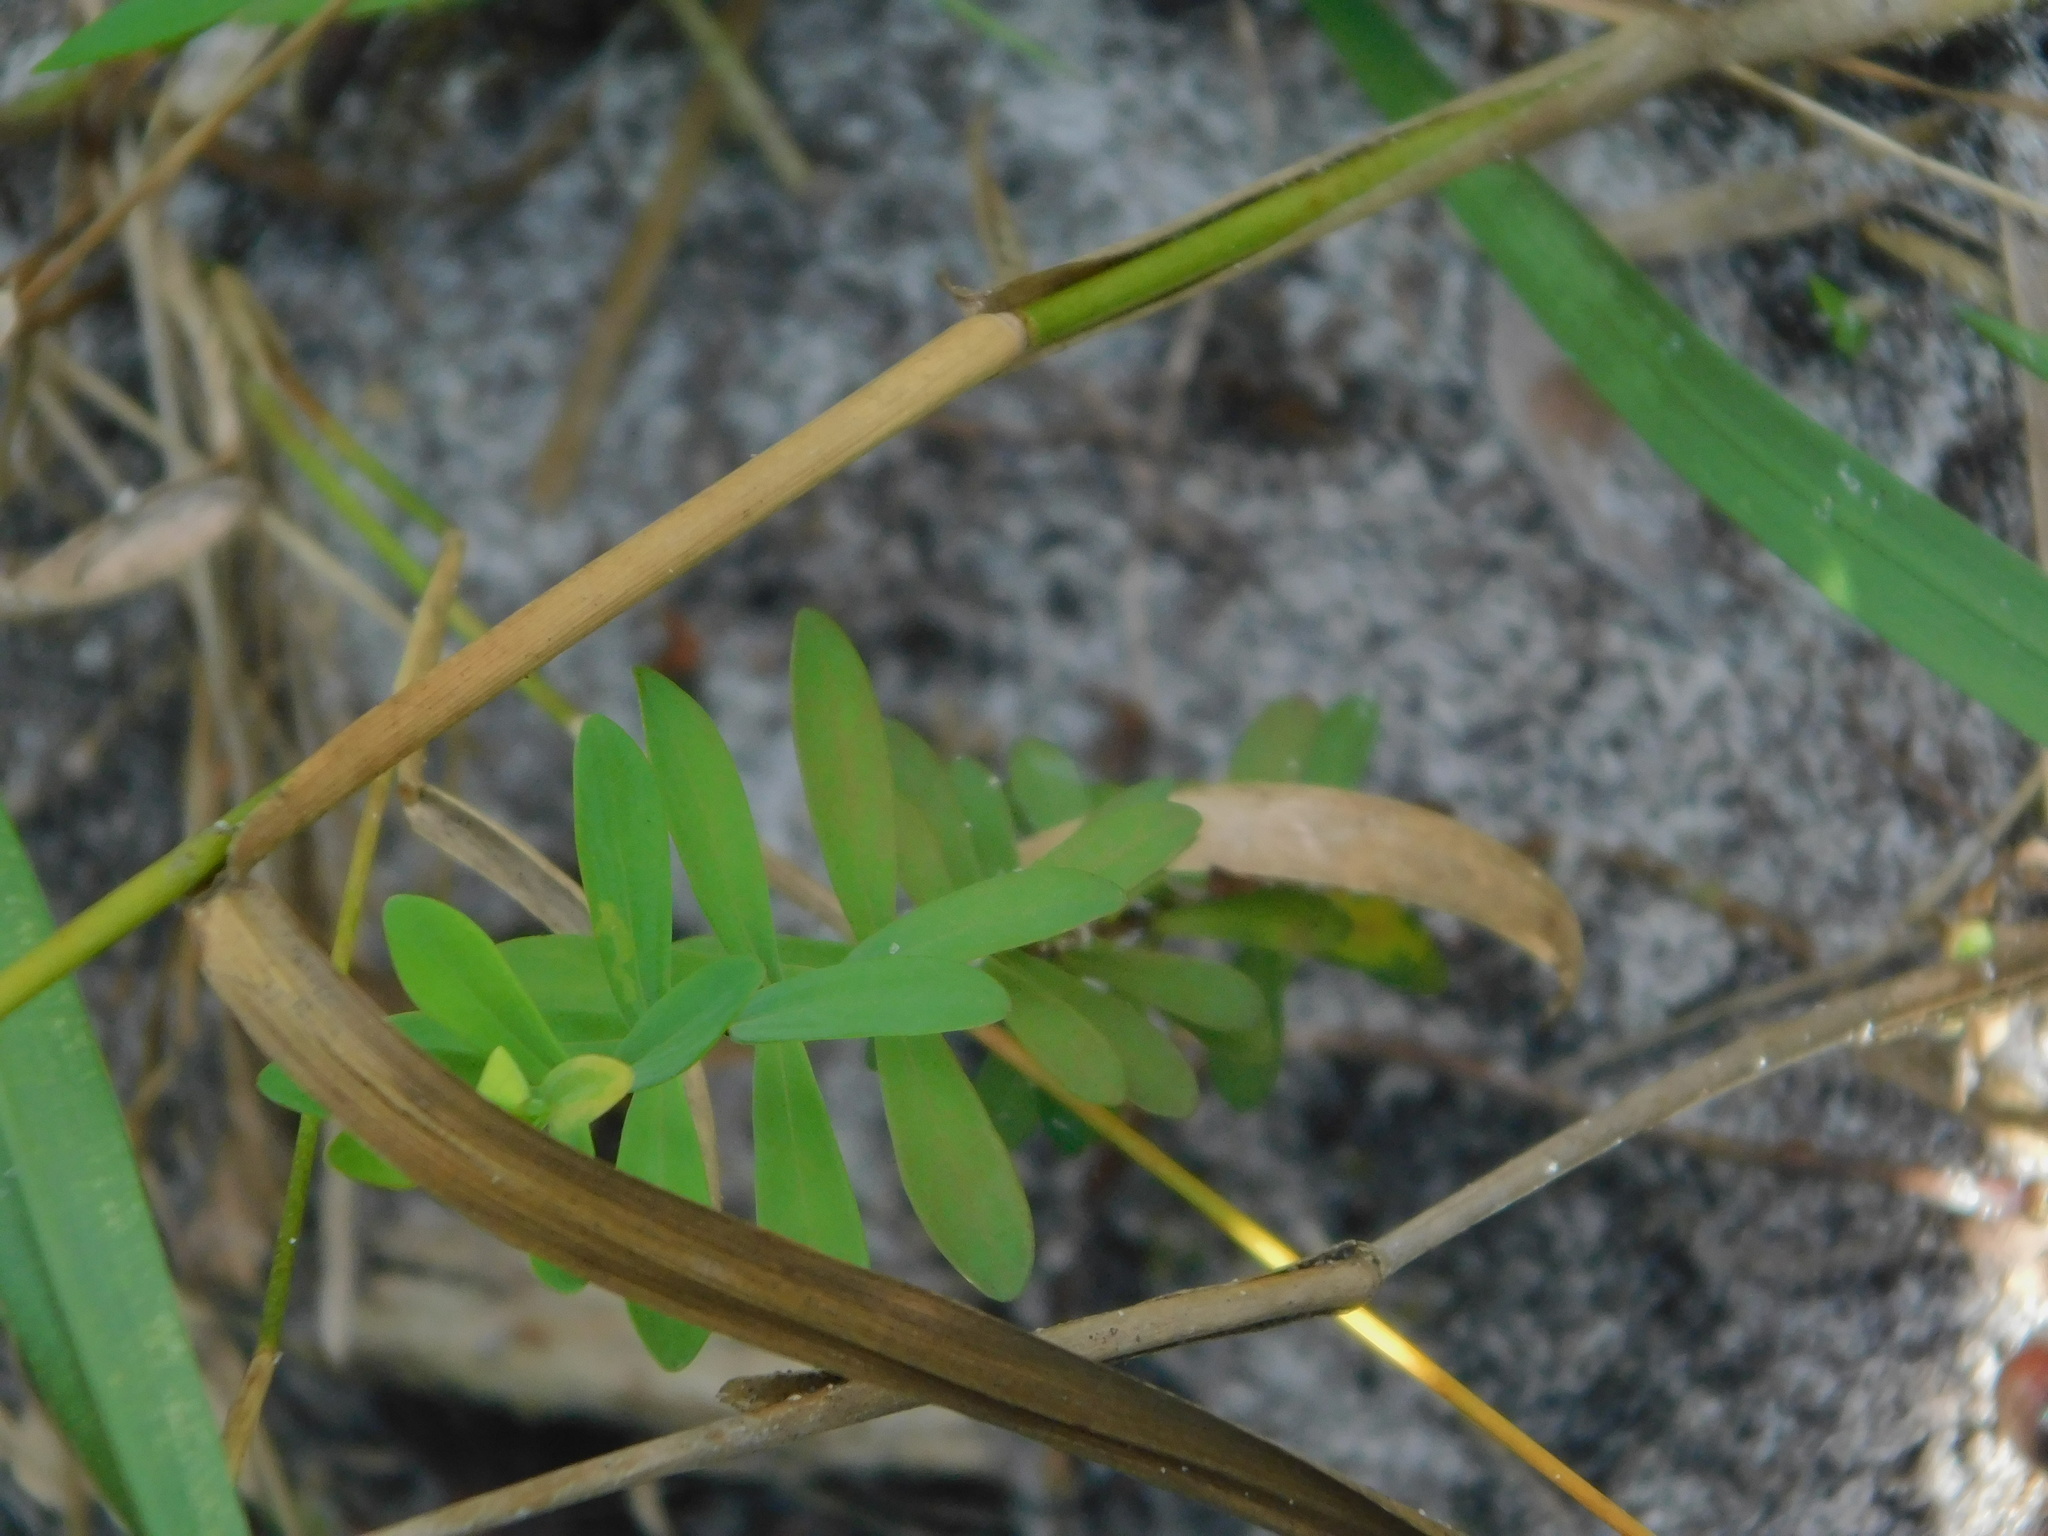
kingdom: Plantae
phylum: Tracheophyta
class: Magnoliopsida
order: Malpighiales
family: Hypericaceae
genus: Hypericum
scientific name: Hypericum hypericoides
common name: St. andrew's cross
